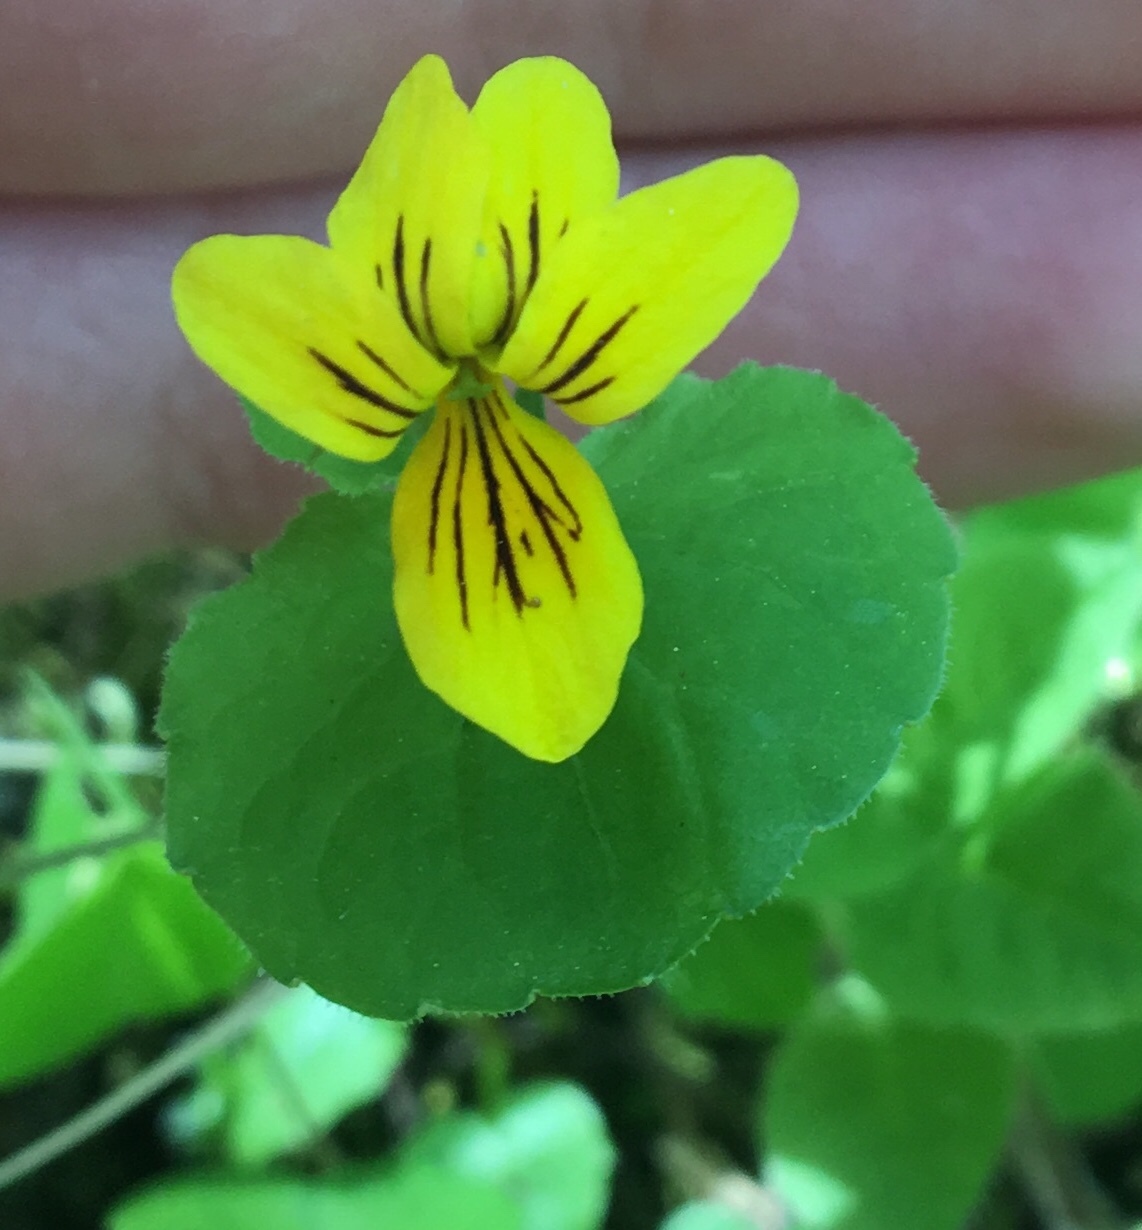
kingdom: Plantae
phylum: Tracheophyta
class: Magnoliopsida
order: Malpighiales
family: Violaceae
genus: Viola
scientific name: Viola biflora
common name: Alpine yellow violet
